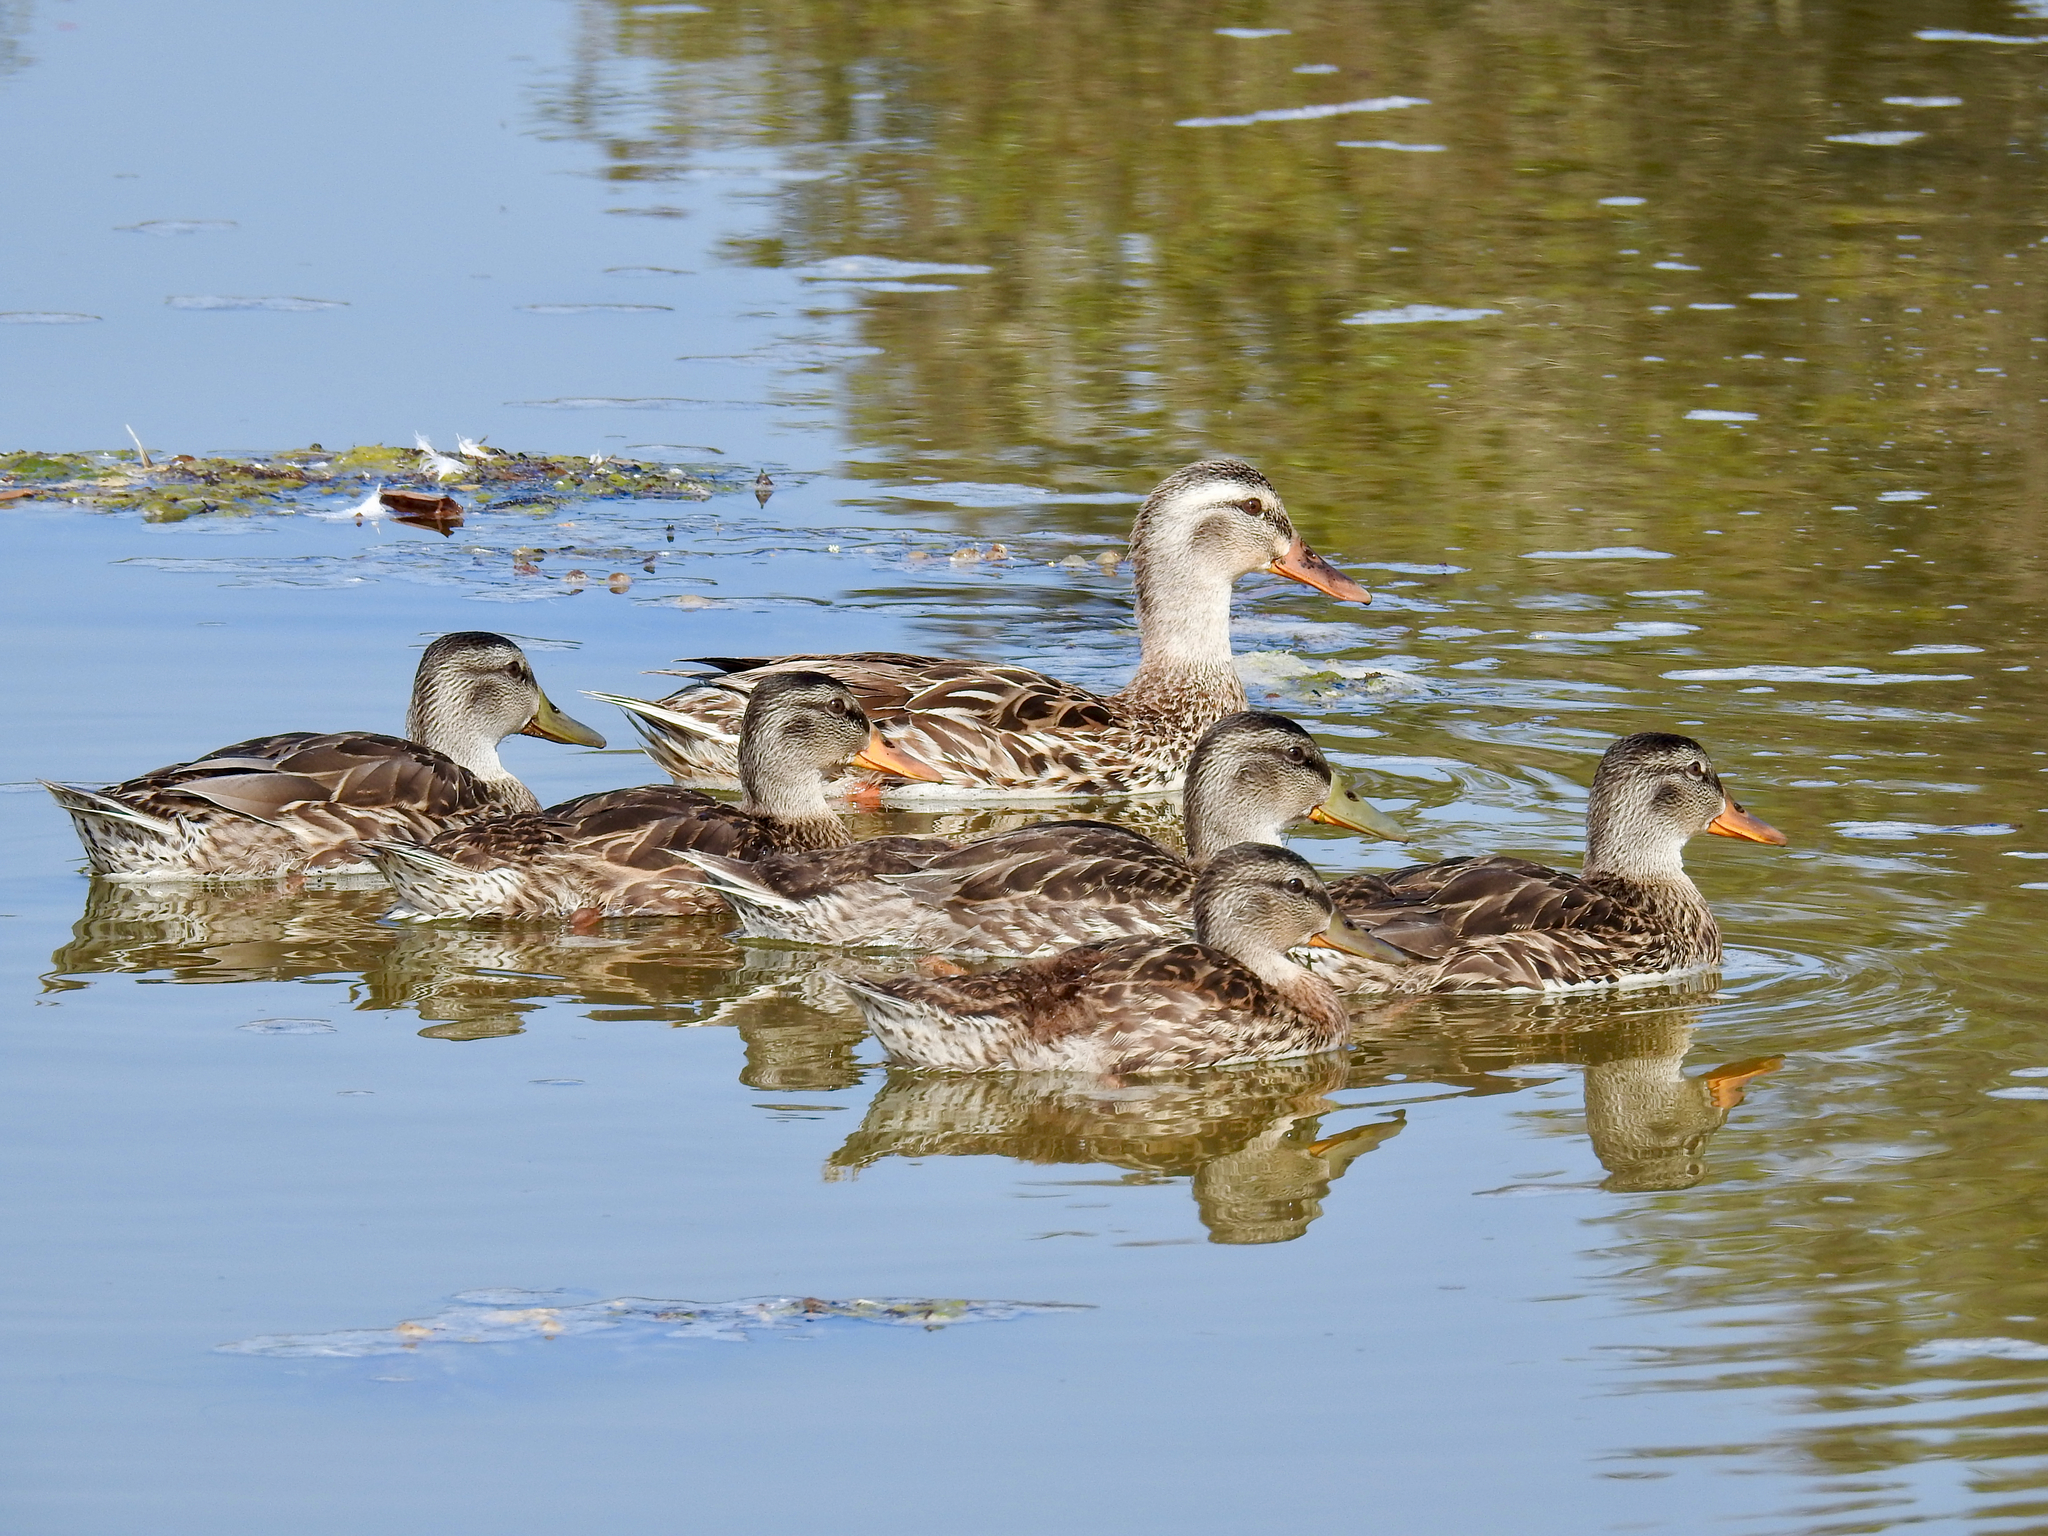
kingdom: Animalia
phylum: Chordata
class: Aves
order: Anseriformes
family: Anatidae
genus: Anas
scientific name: Anas platyrhynchos
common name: Mallard
